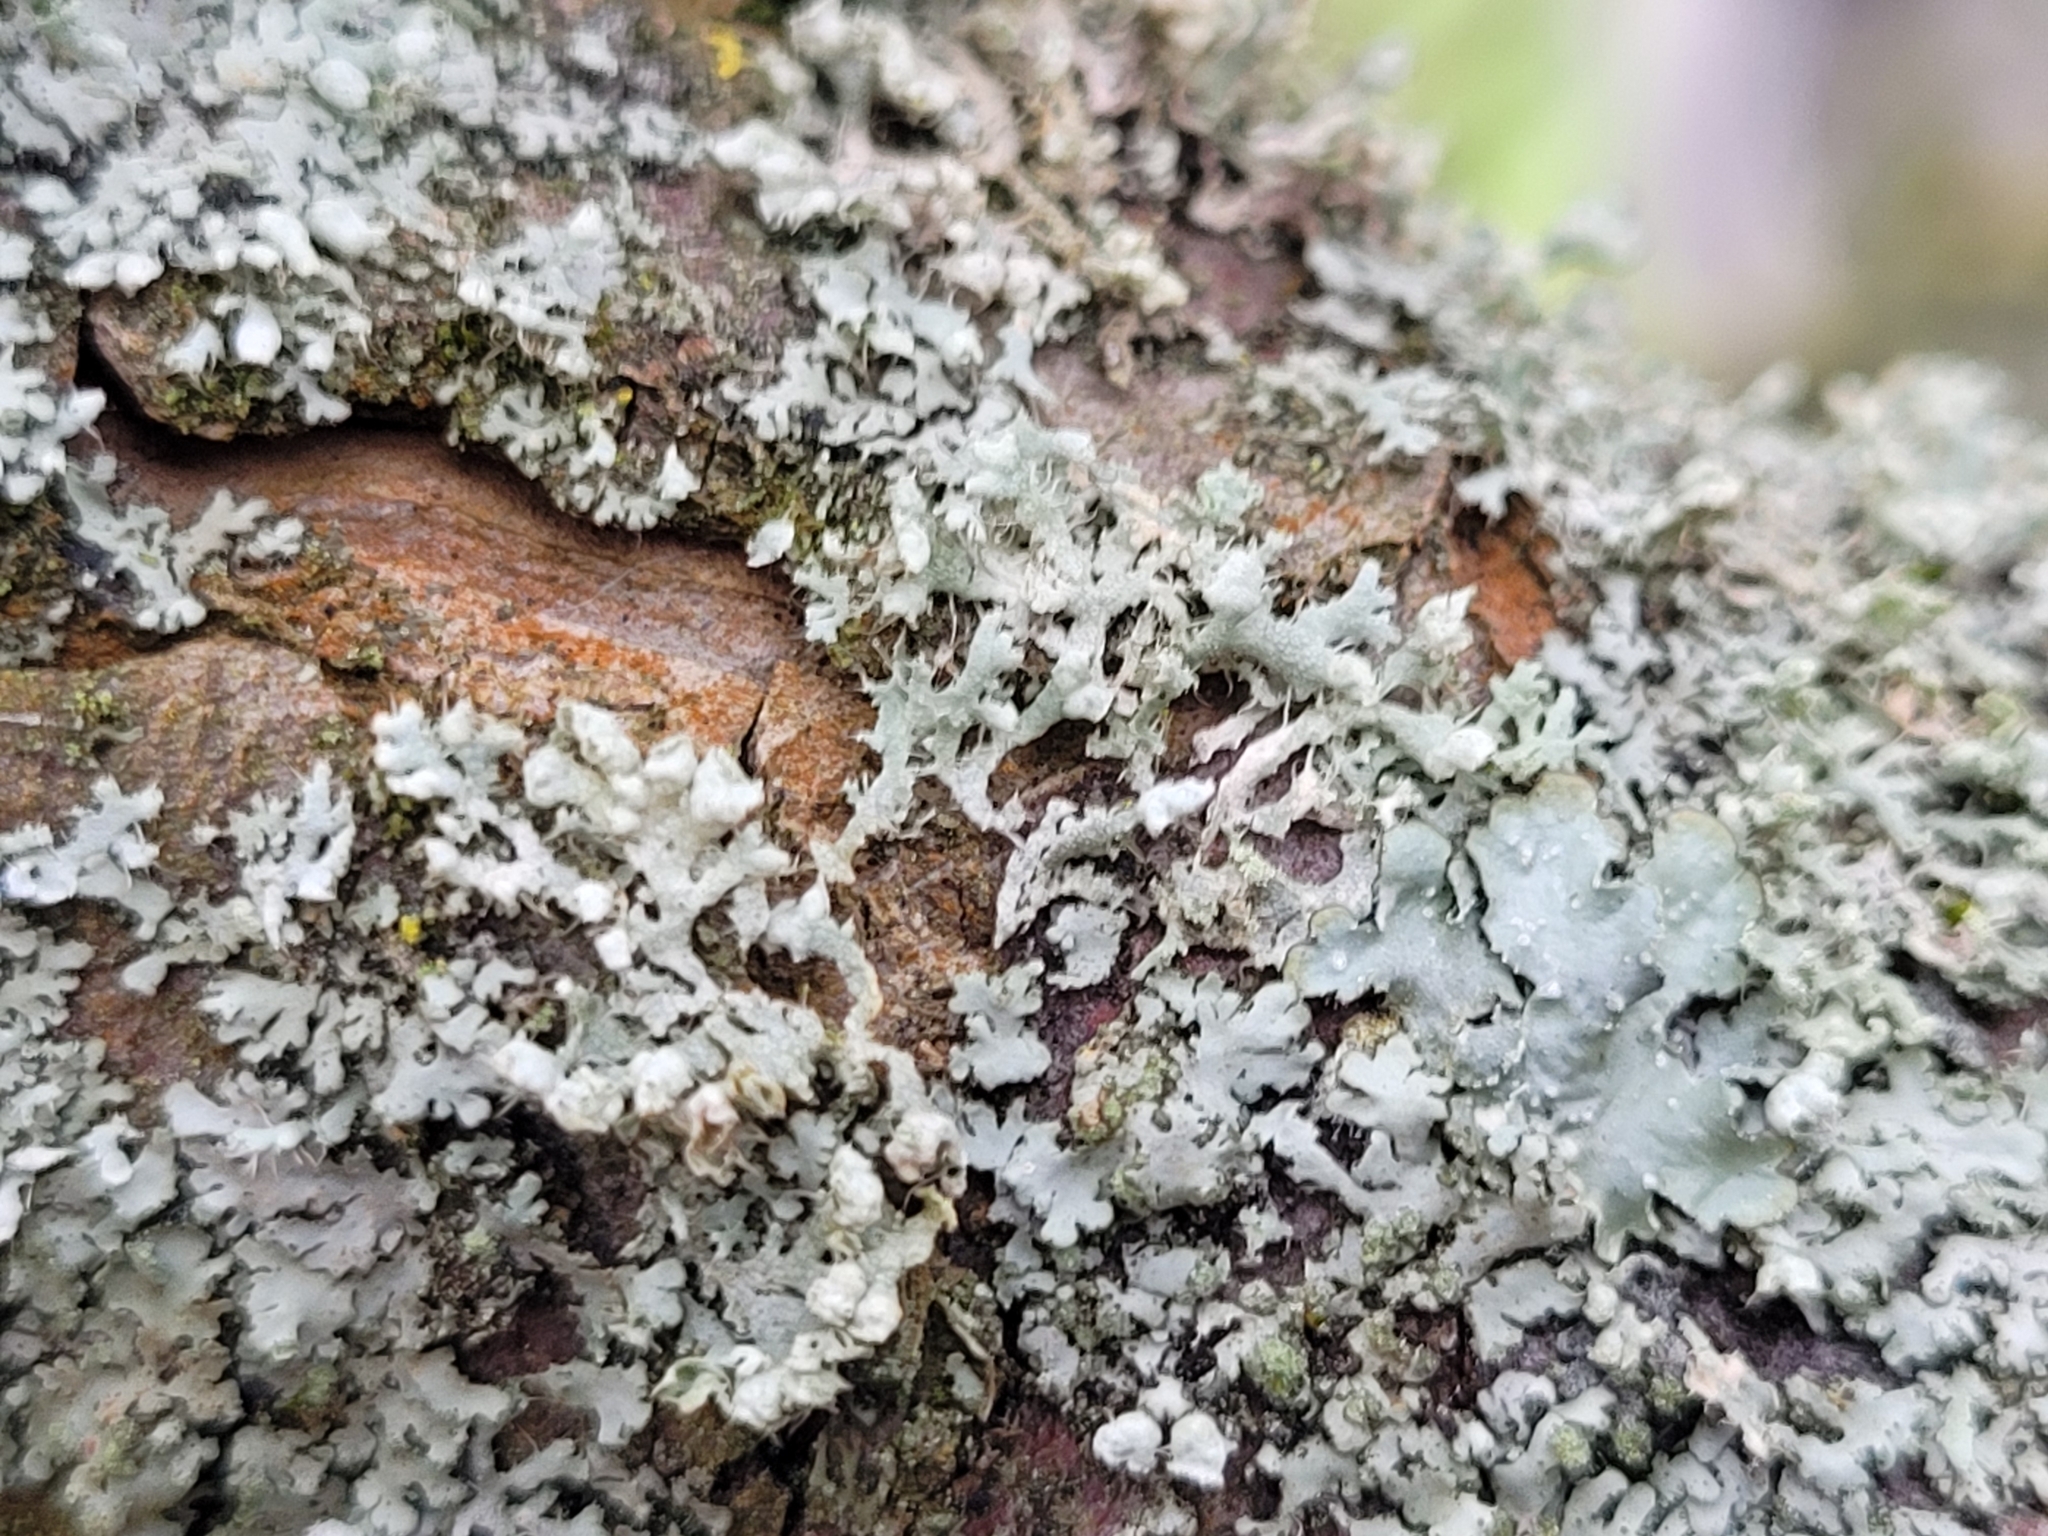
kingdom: Fungi
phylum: Ascomycota
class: Lecanoromycetes
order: Caliciales
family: Physciaceae
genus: Physcia
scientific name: Physcia adscendens
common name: Hooded rosette lichen
